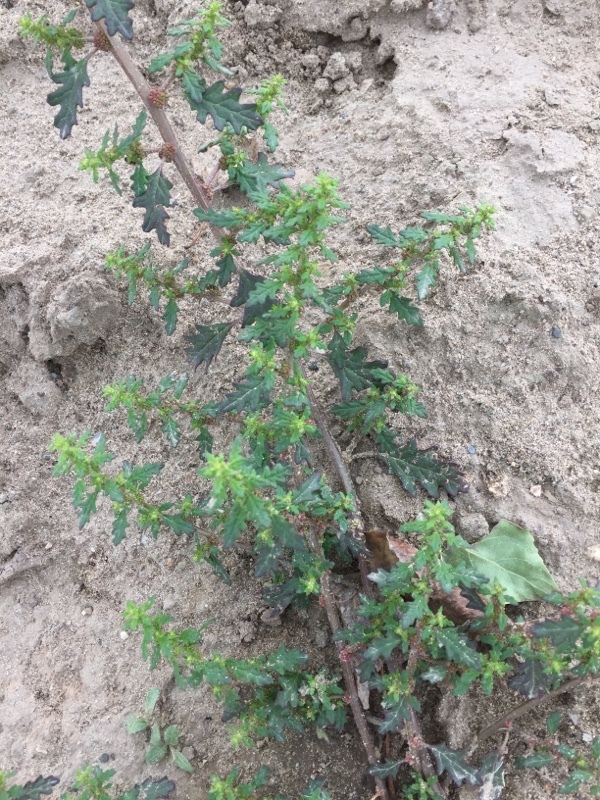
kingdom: Plantae
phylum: Tracheophyta
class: Magnoliopsida
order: Caryophyllales
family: Amaranthaceae
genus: Dysphania
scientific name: Dysphania pumilio
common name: Clammy goosefoot
